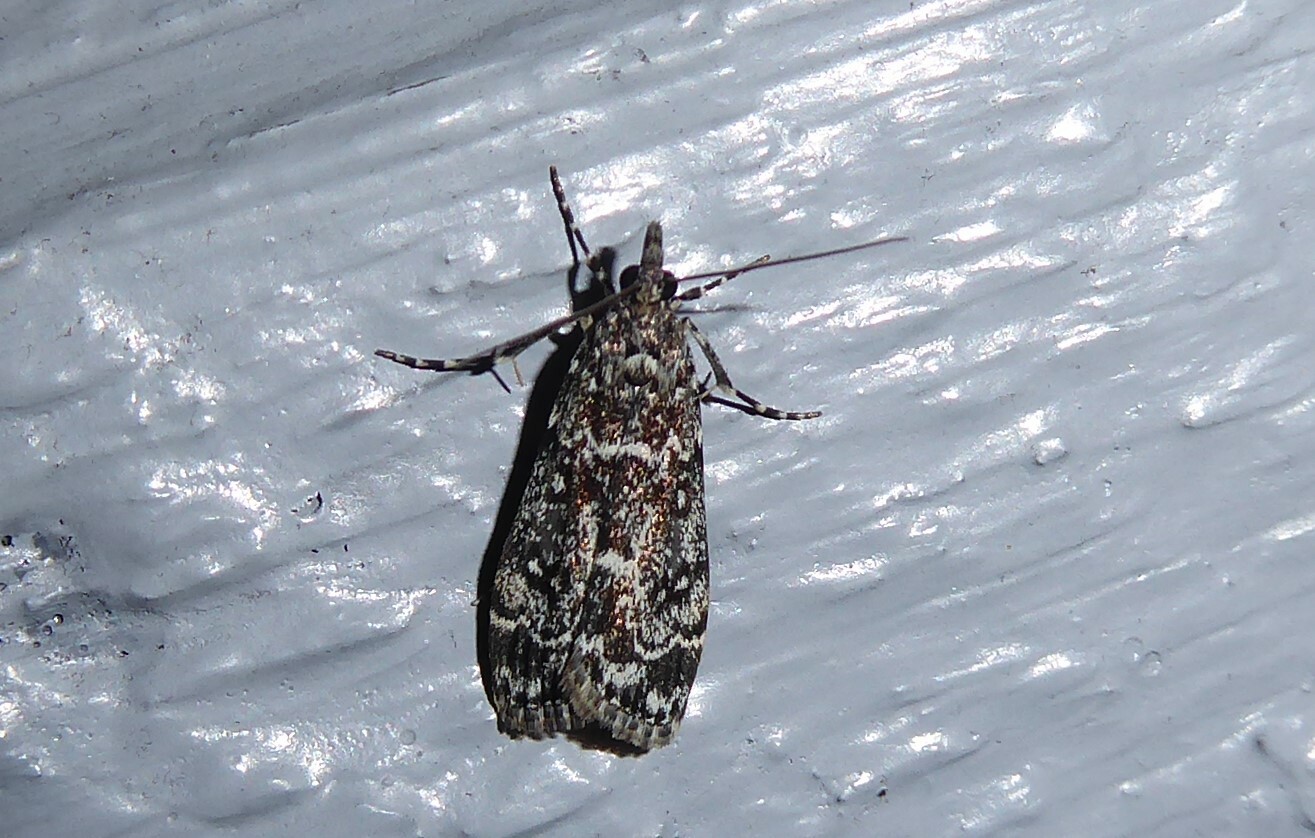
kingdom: Animalia
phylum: Arthropoda
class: Insecta
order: Lepidoptera
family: Crambidae
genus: Eudonia
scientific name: Eudonia philerga
